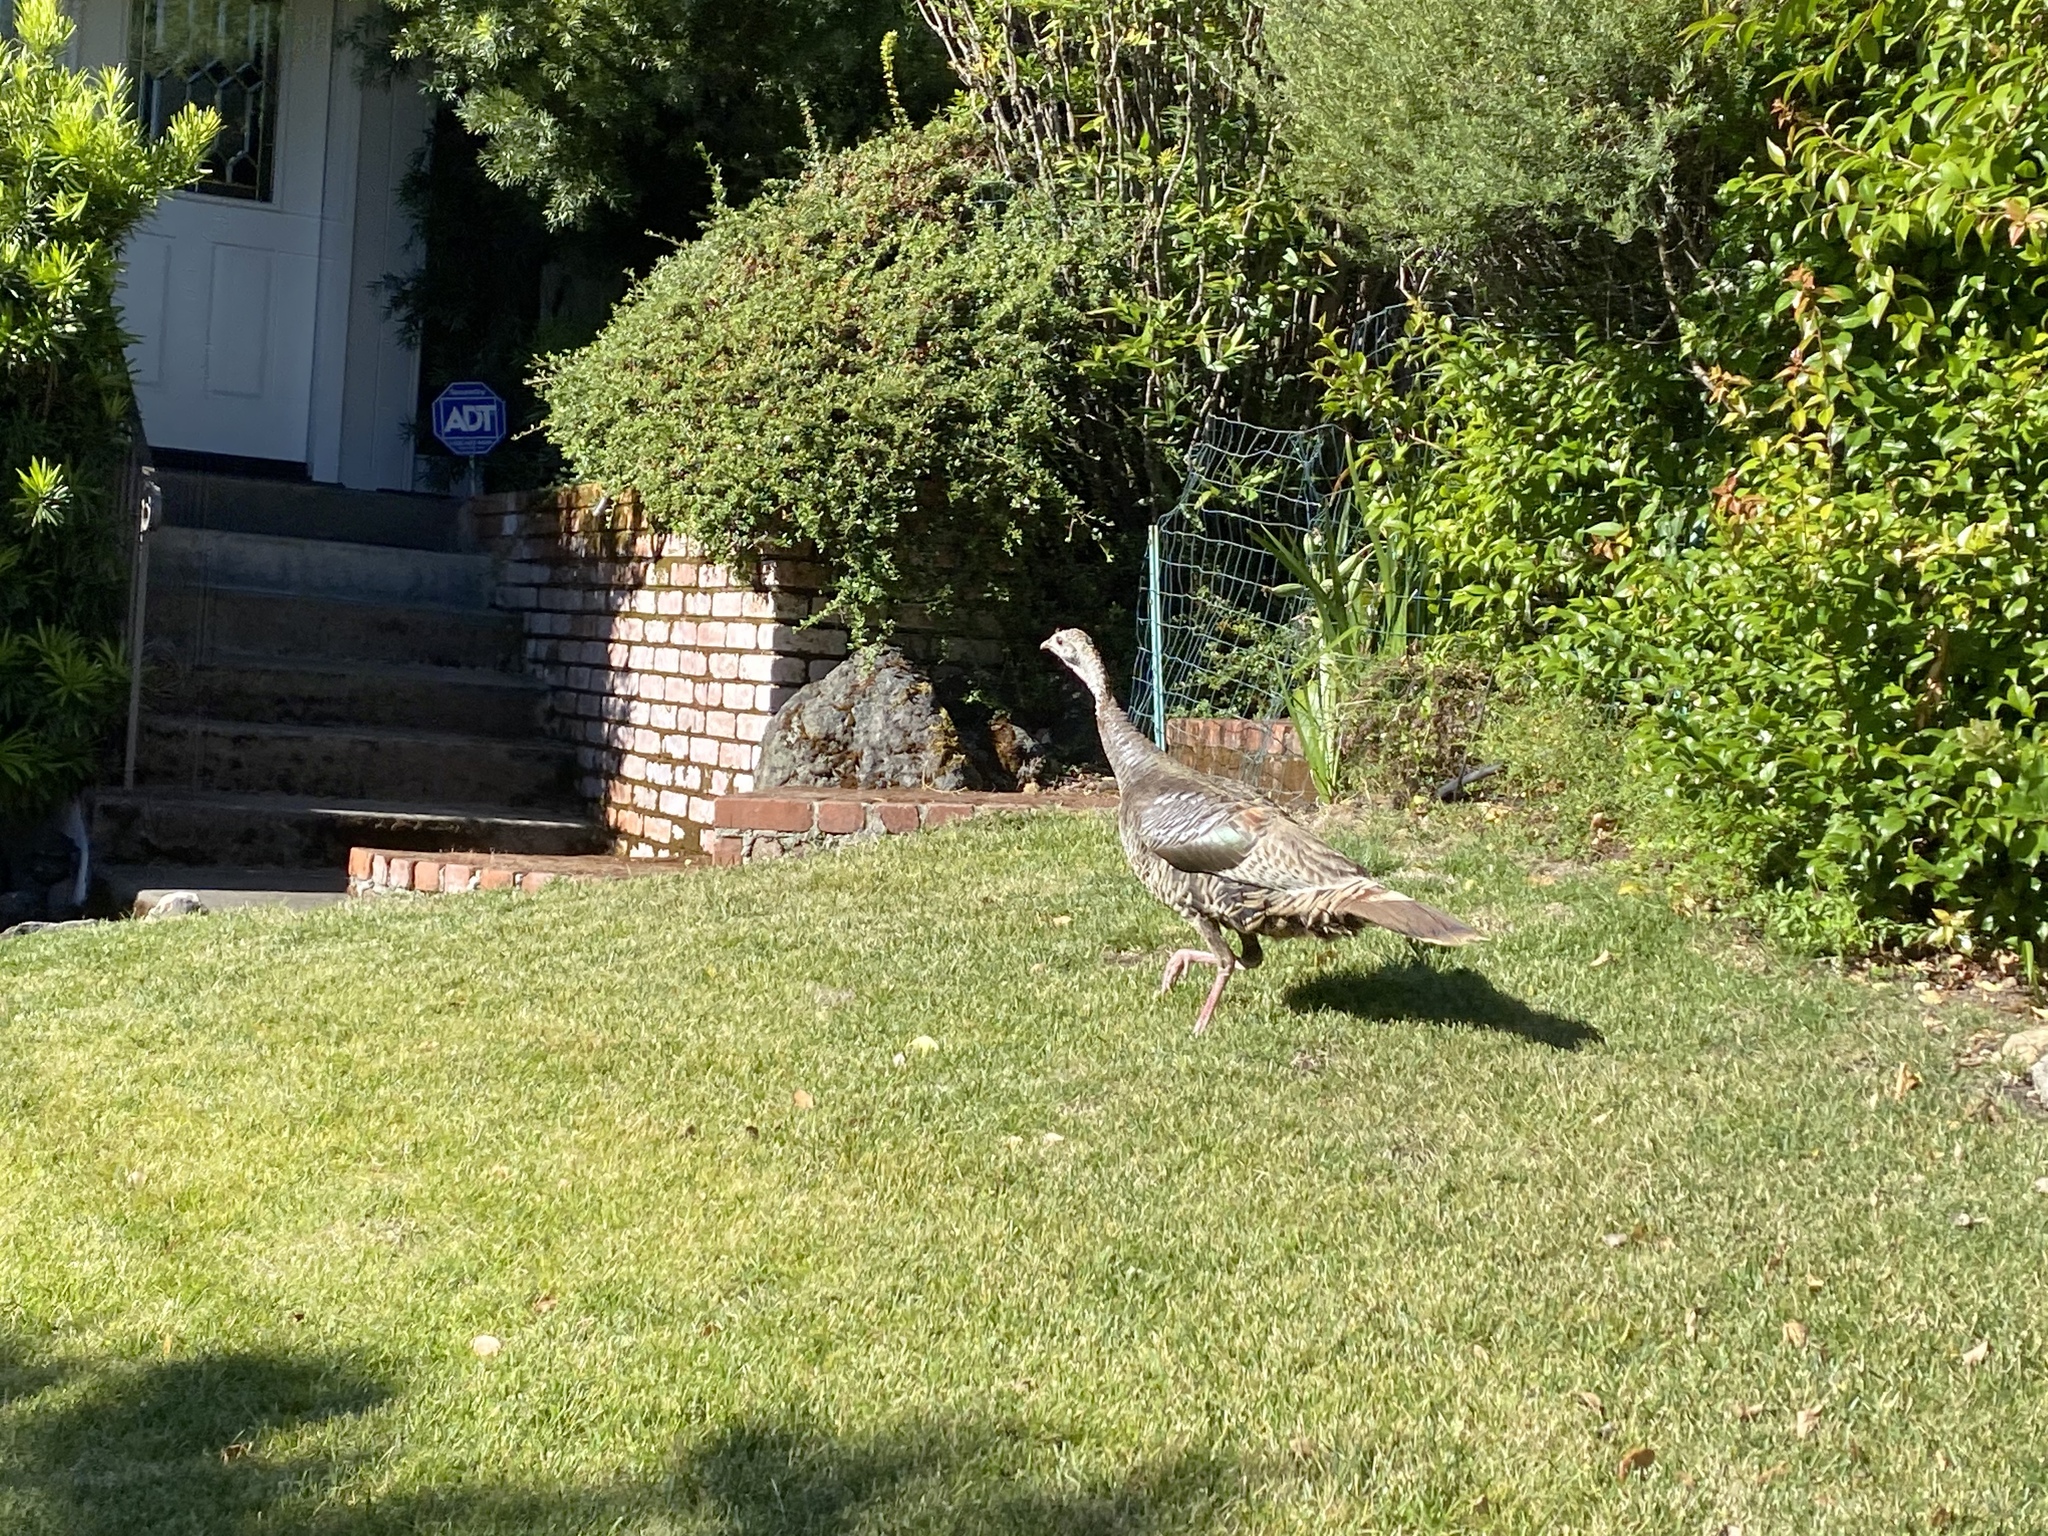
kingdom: Animalia
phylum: Chordata
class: Aves
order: Galliformes
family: Phasianidae
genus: Meleagris
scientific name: Meleagris gallopavo
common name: Wild turkey
